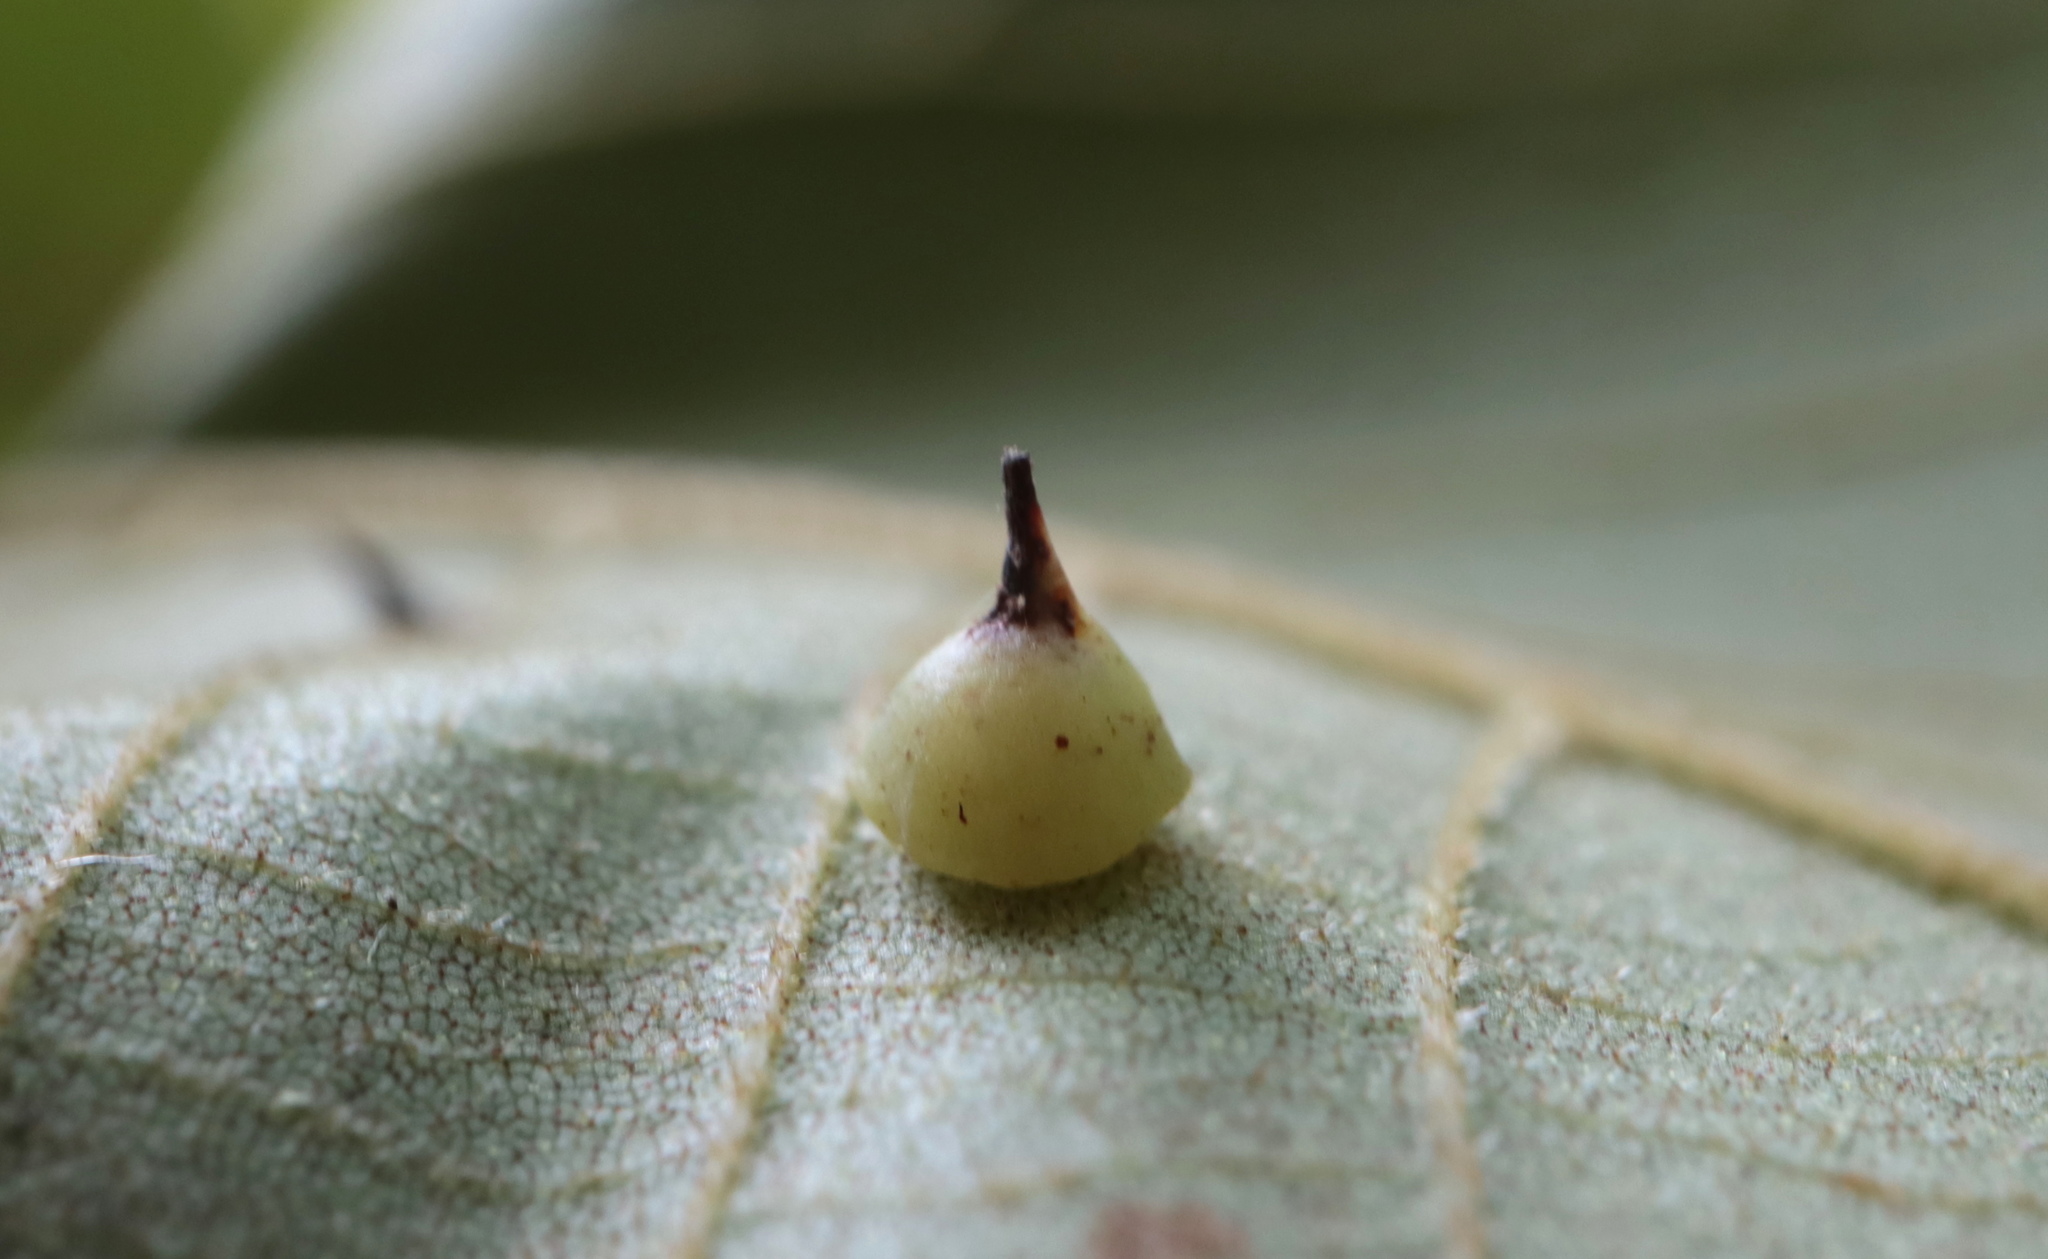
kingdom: Animalia
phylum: Arthropoda
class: Insecta
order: Diptera
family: Cecidomyiidae
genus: Caryomyia
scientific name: Caryomyia sanguinolenta
